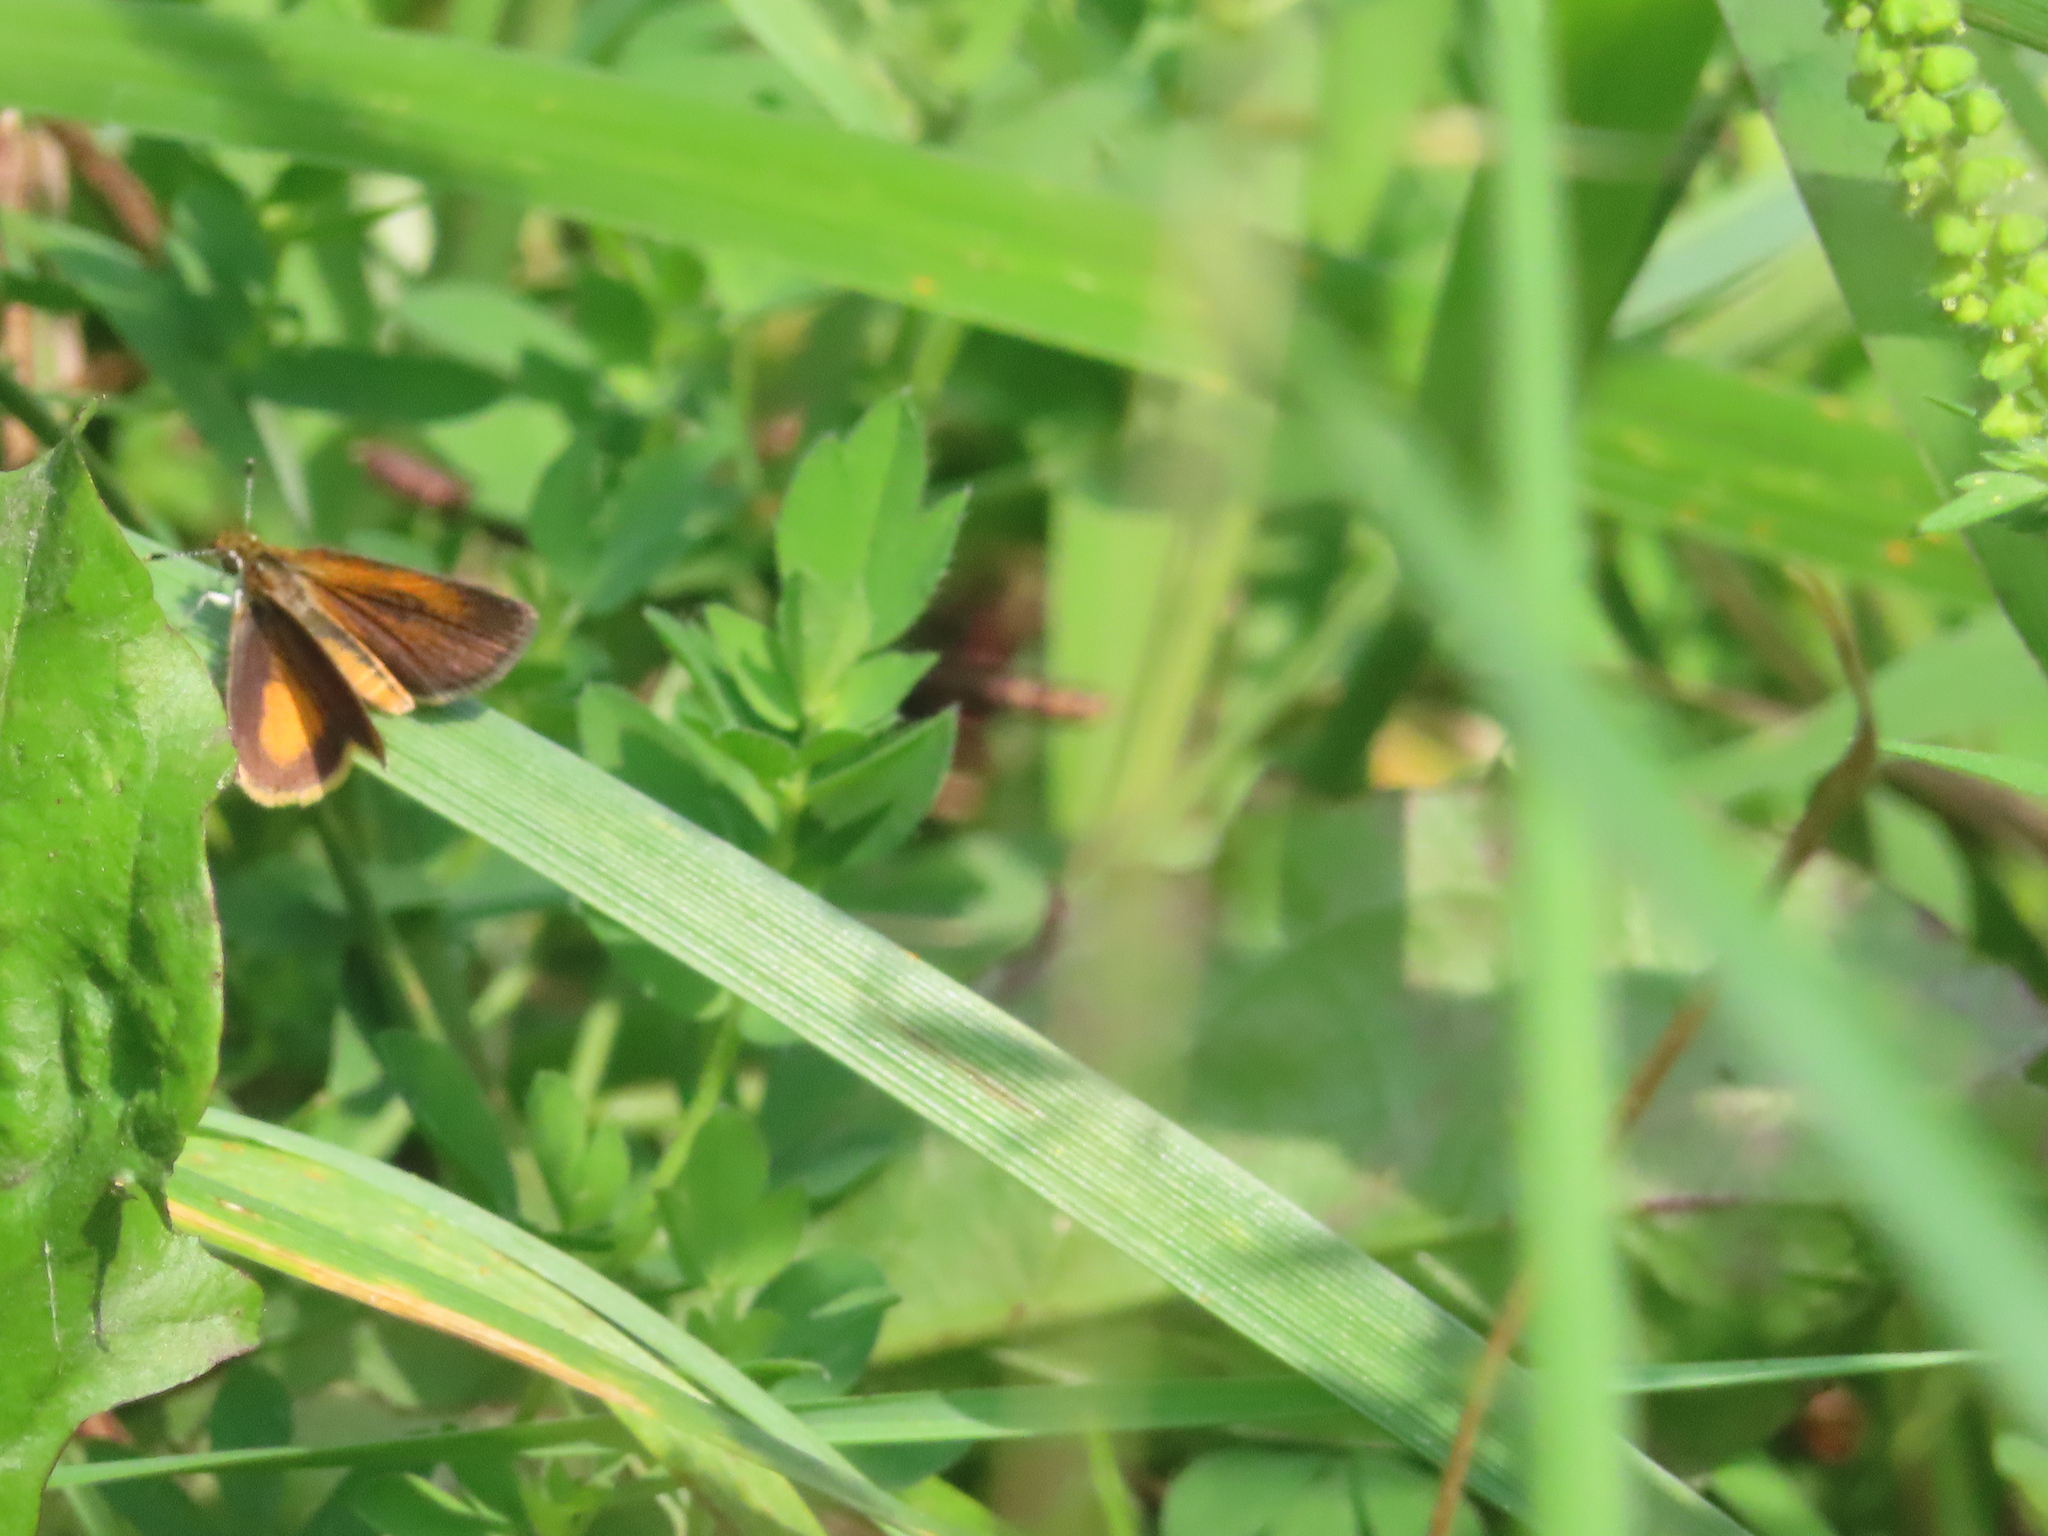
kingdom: Animalia
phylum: Arthropoda
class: Insecta
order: Lepidoptera
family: Hesperiidae
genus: Ancyloxypha
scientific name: Ancyloxypha numitor
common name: Least skipper
